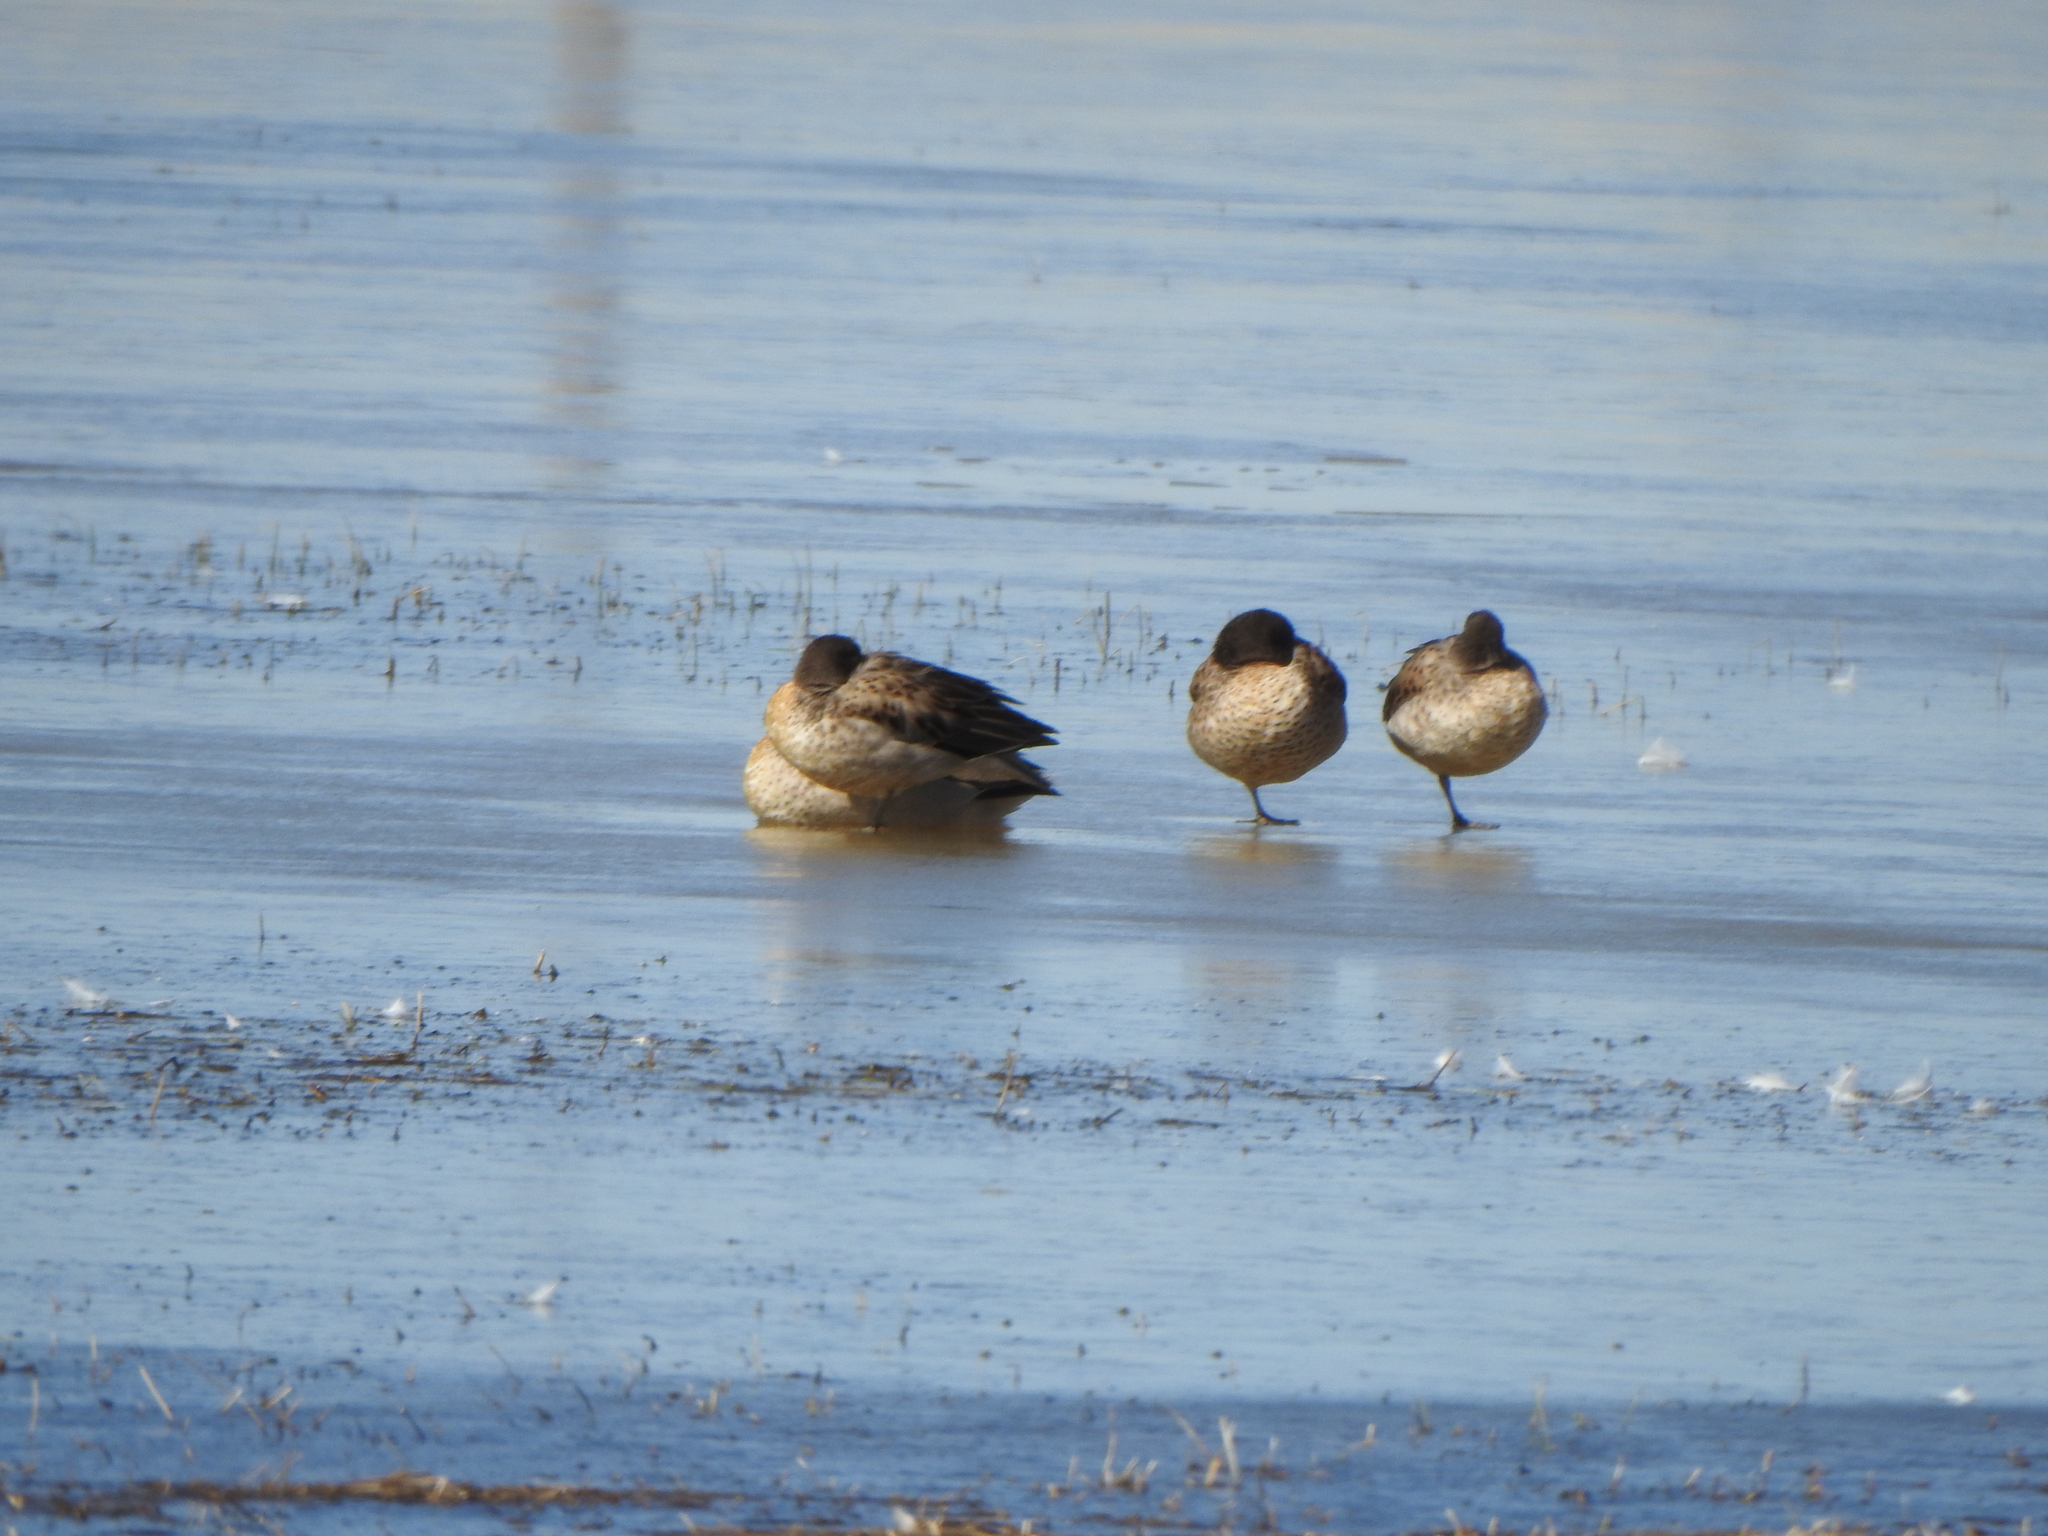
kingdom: Animalia
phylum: Chordata
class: Aves
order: Anseriformes
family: Anatidae
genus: Anas
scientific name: Anas flavirostris
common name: Yellow-billed teal
